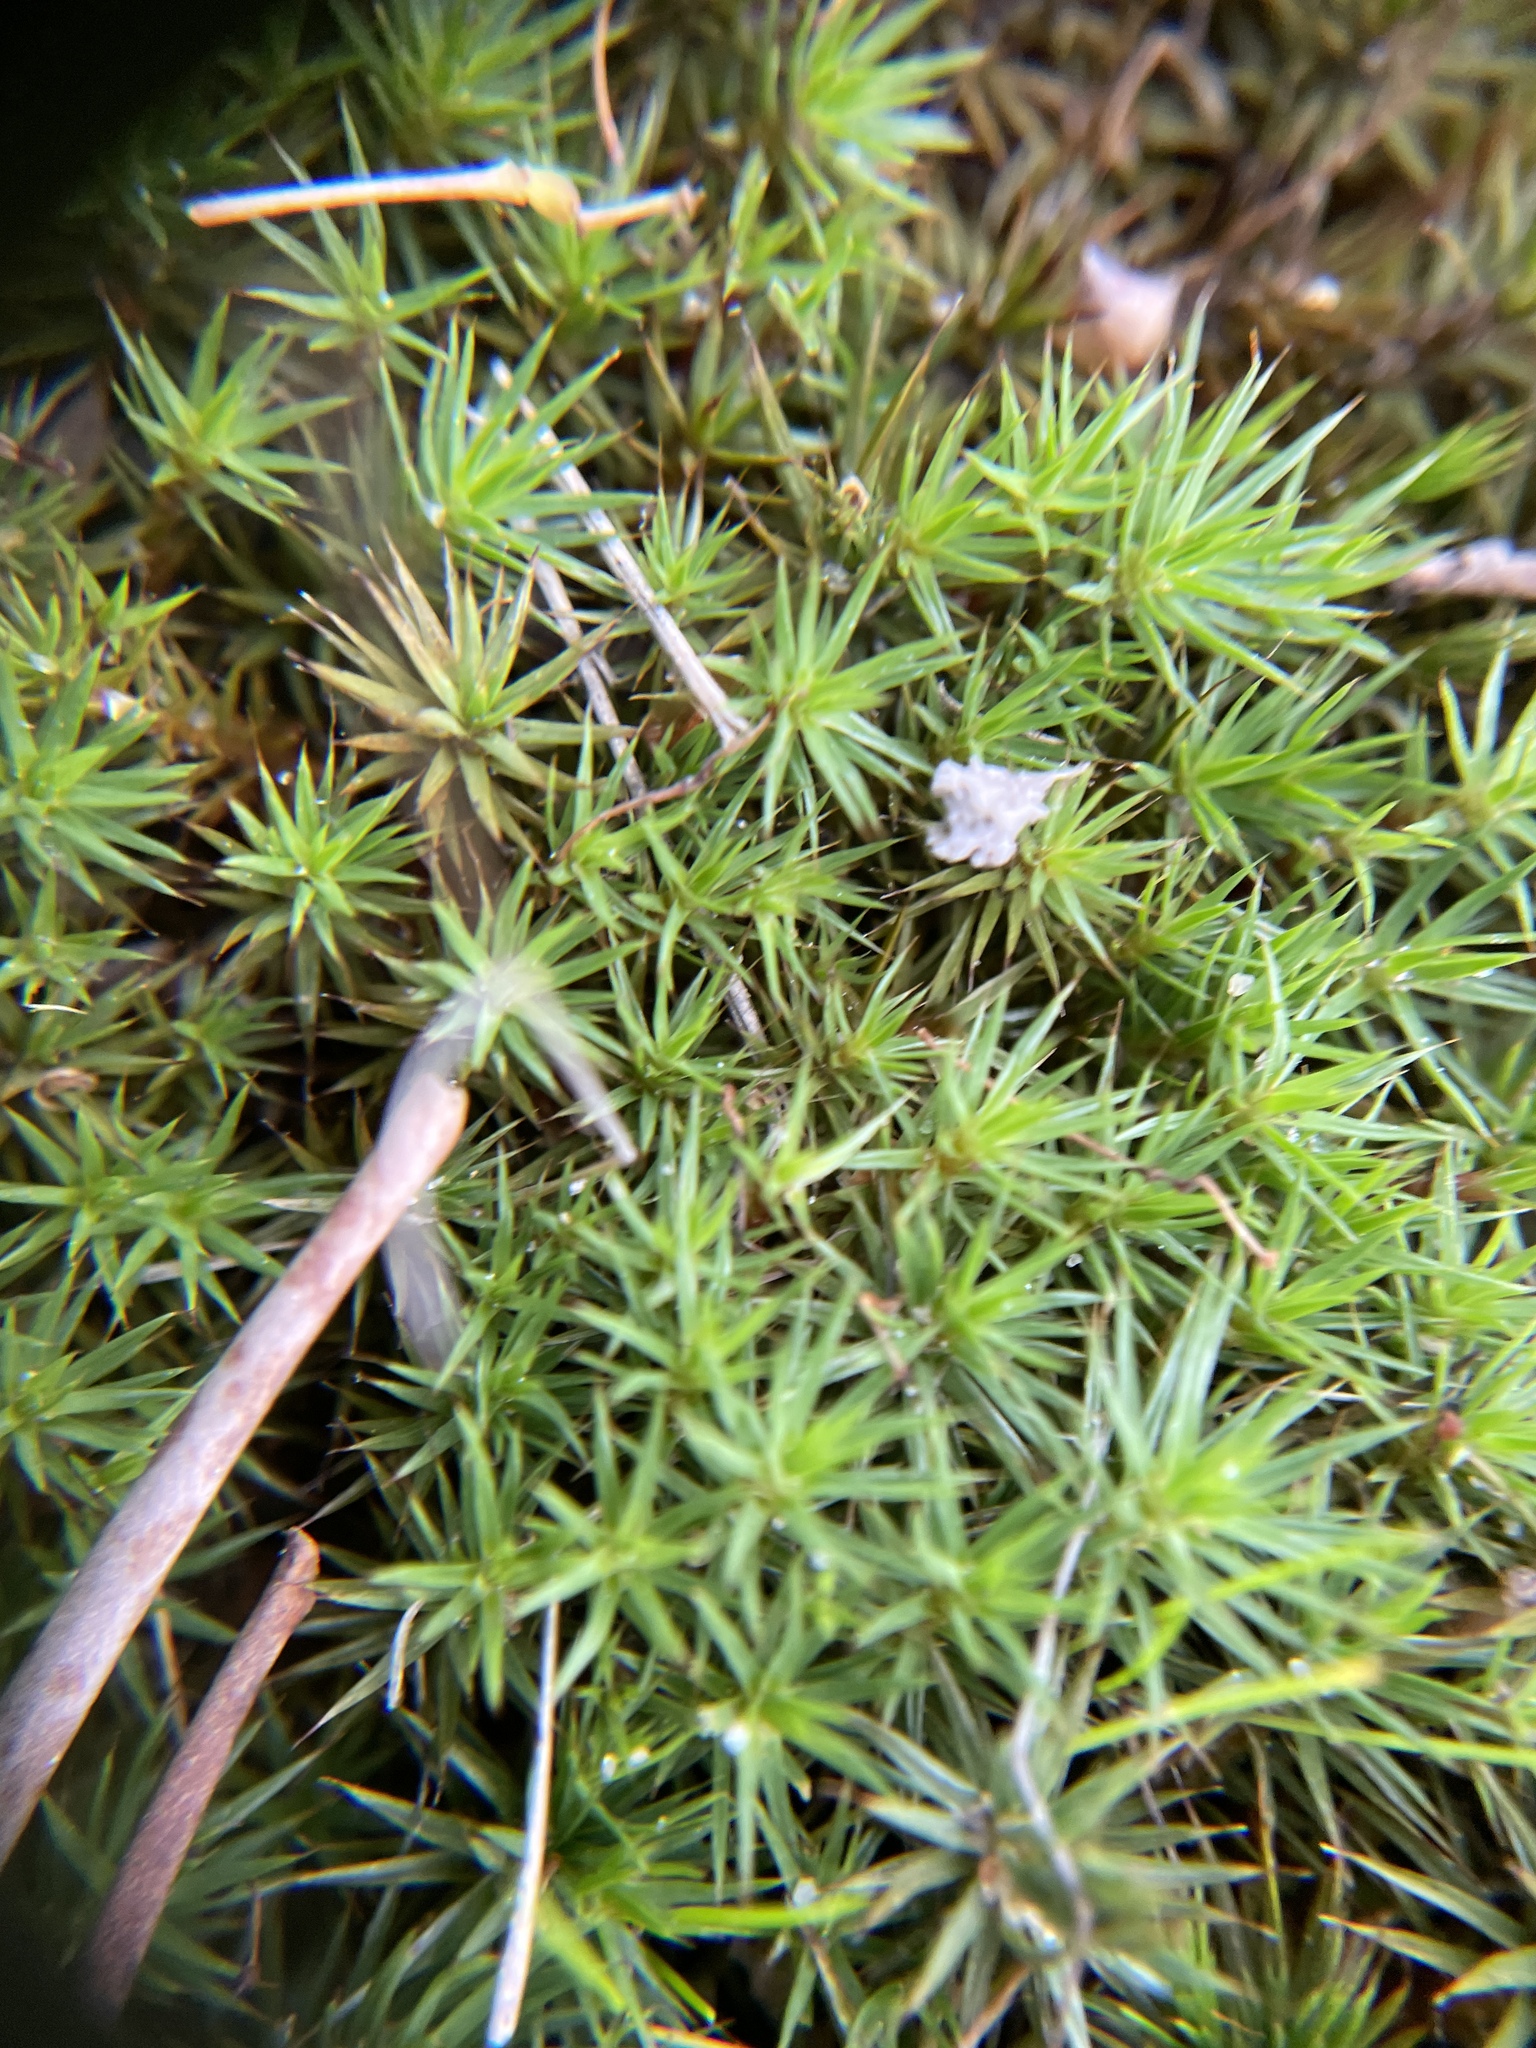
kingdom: Plantae
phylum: Bryophyta
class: Polytrichopsida
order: Polytrichales
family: Polytrichaceae
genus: Polytrichum
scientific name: Polytrichum juniperinum
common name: Juniper haircap moss
